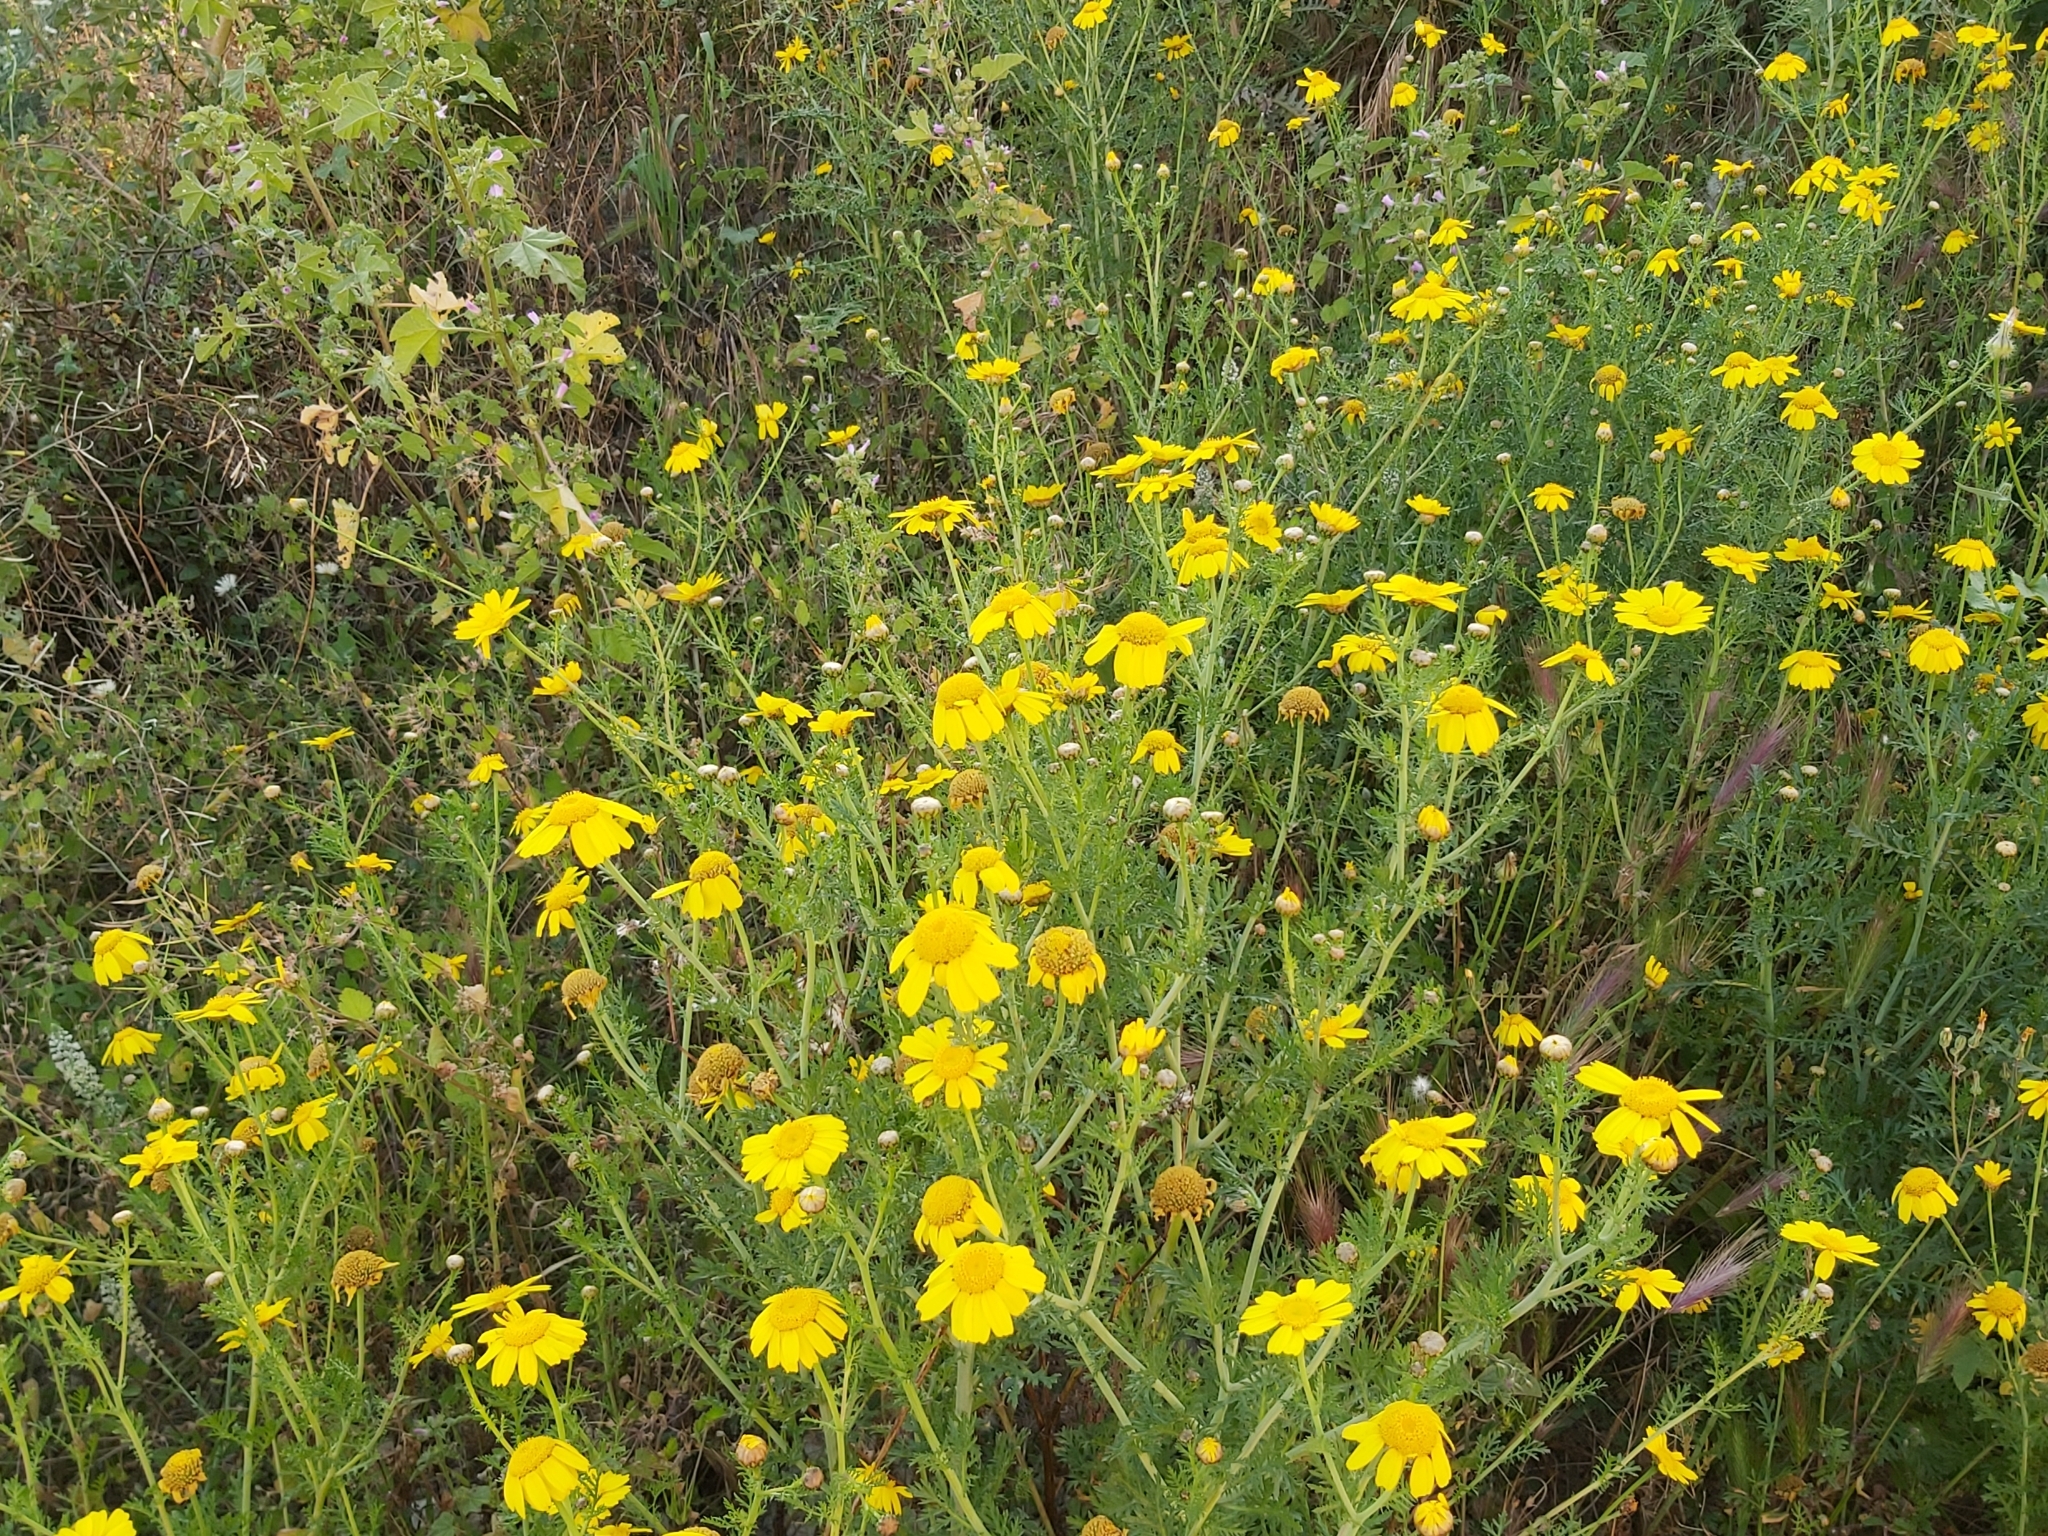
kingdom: Plantae
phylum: Tracheophyta
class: Magnoliopsida
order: Asterales
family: Asteraceae
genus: Glebionis
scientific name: Glebionis coronaria
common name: Crowndaisy
